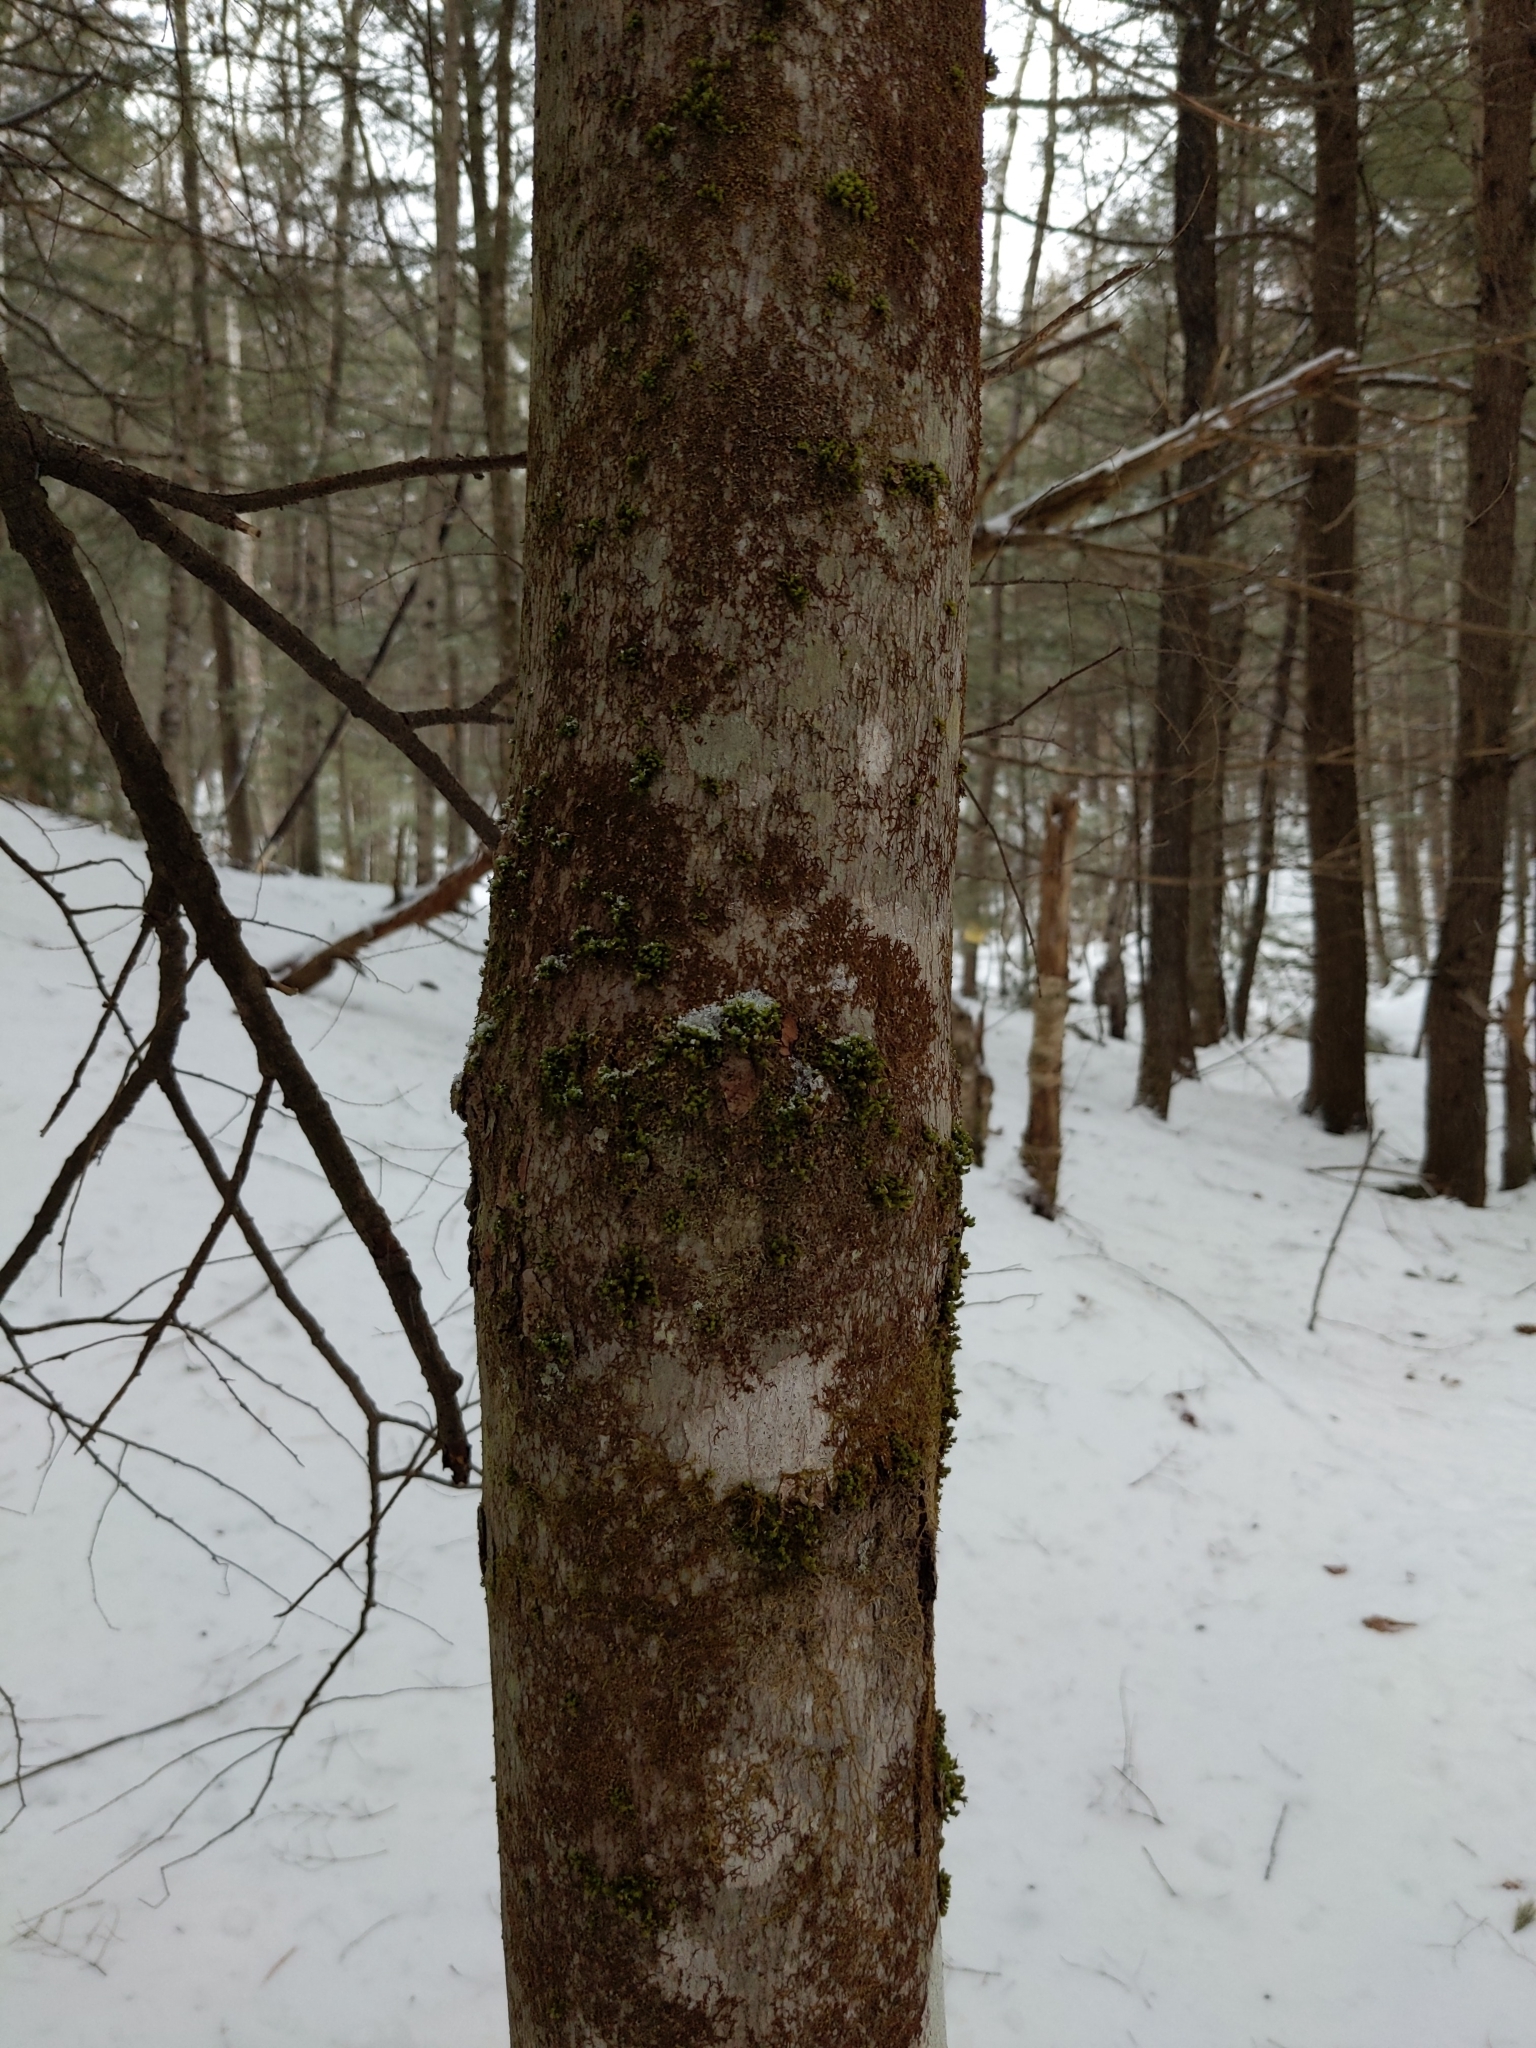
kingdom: Plantae
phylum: Tracheophyta
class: Magnoliopsida
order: Fagales
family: Fagaceae
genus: Fagus
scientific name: Fagus grandifolia
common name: American beech
